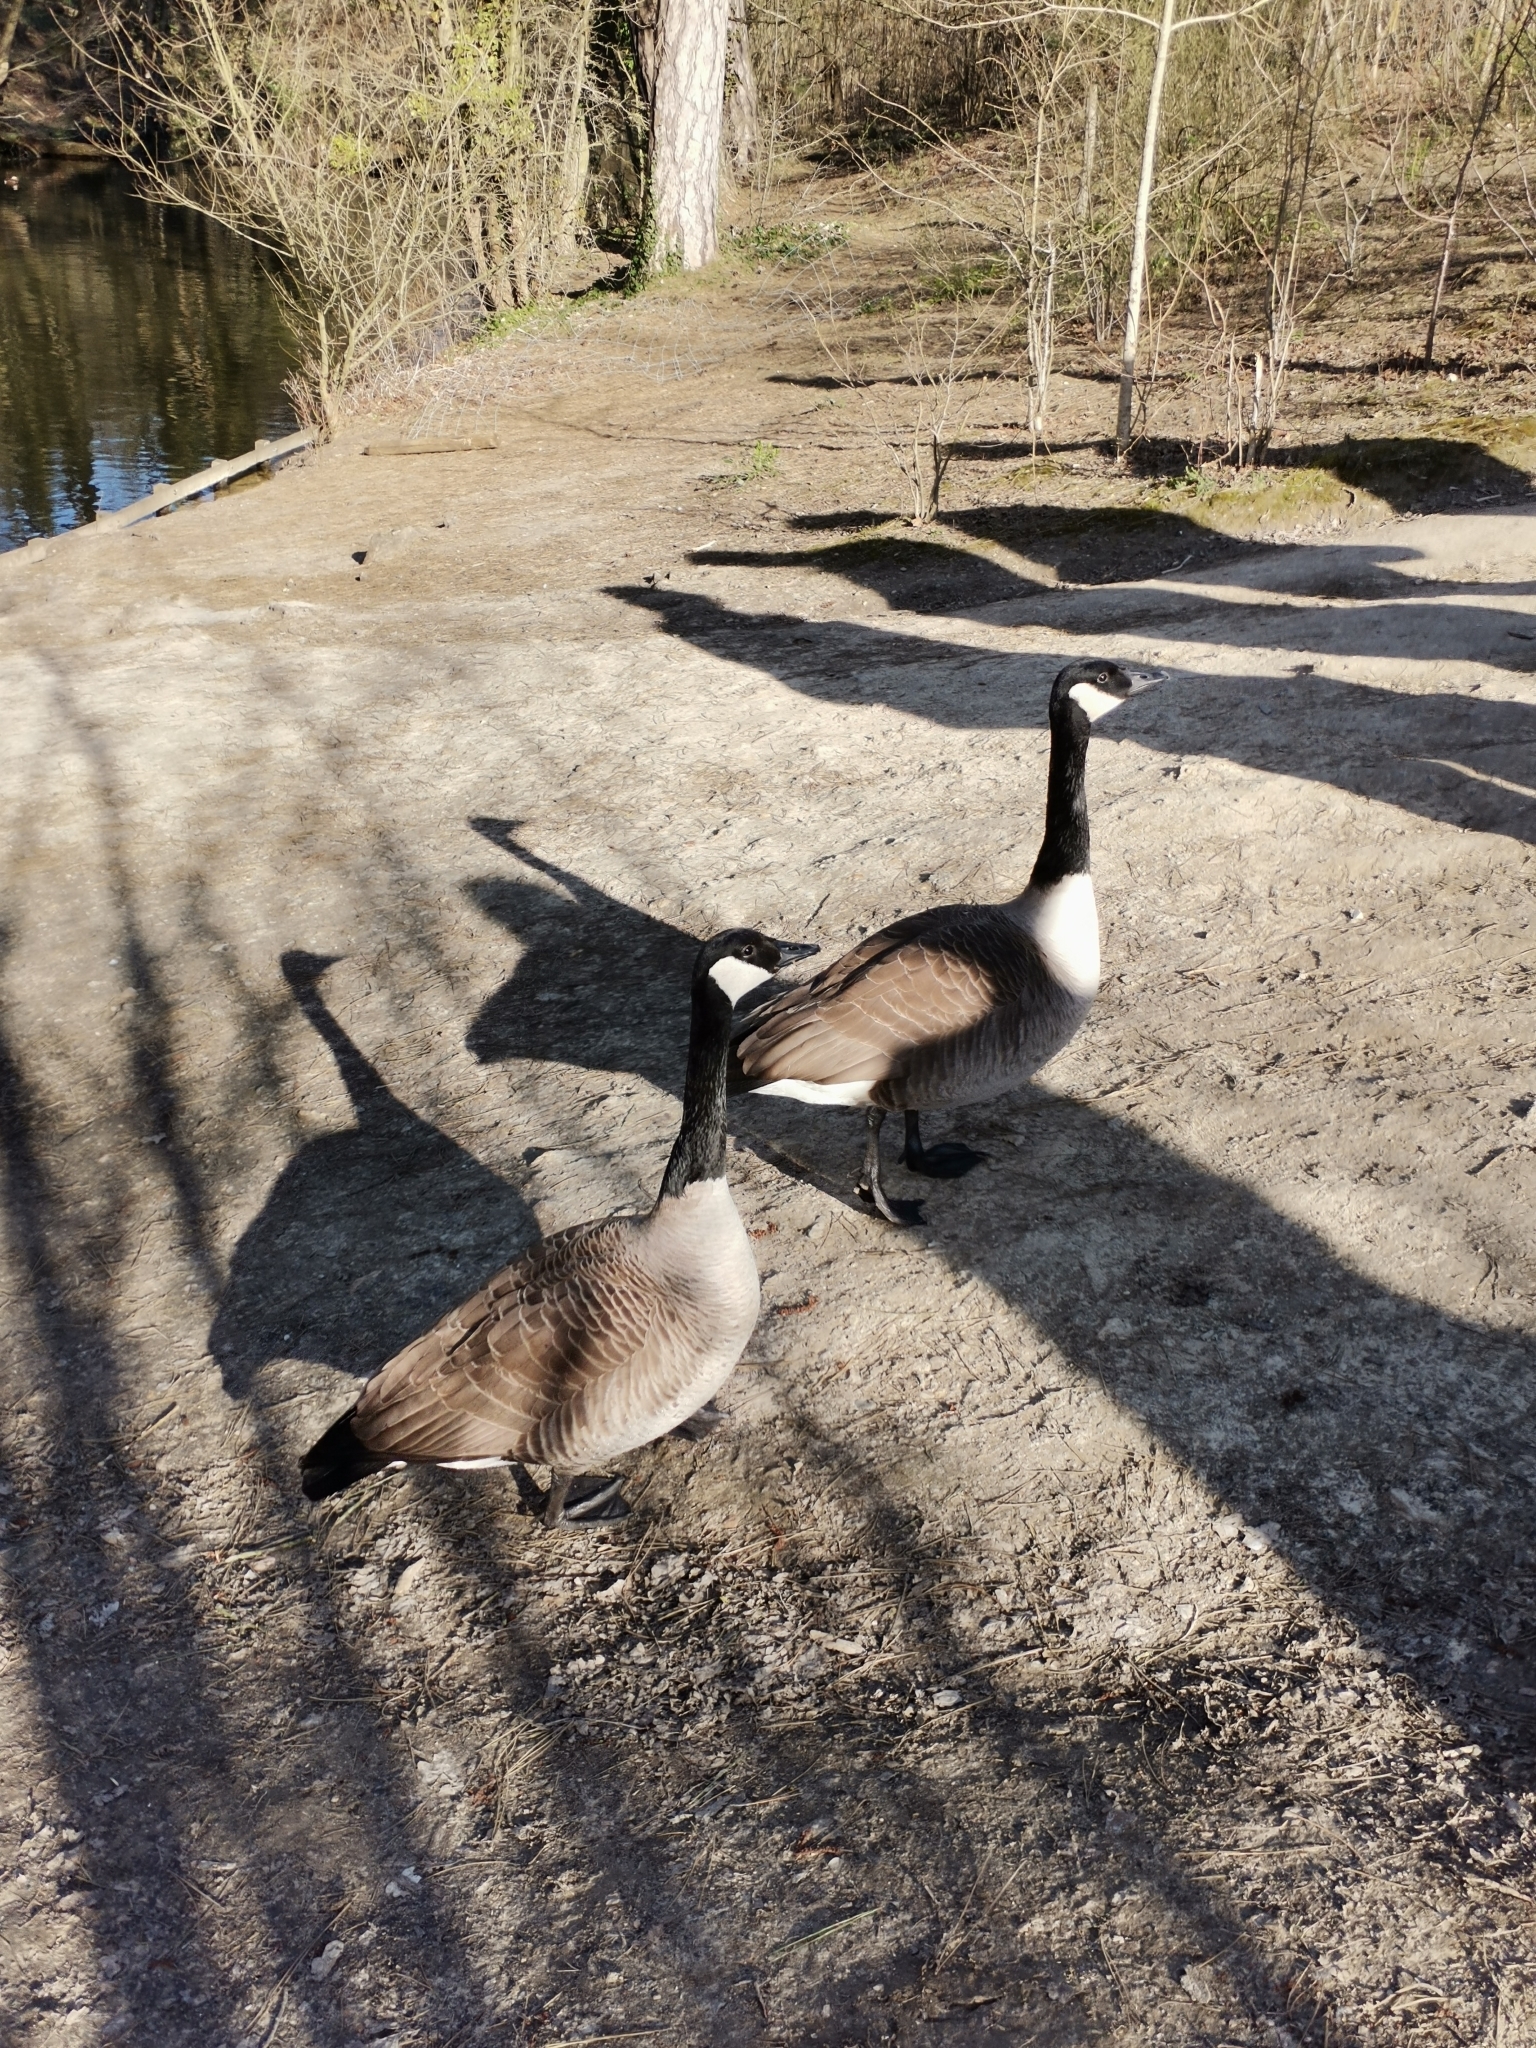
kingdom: Animalia
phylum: Chordata
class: Aves
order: Anseriformes
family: Anatidae
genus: Branta
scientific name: Branta canadensis
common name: Canada goose
